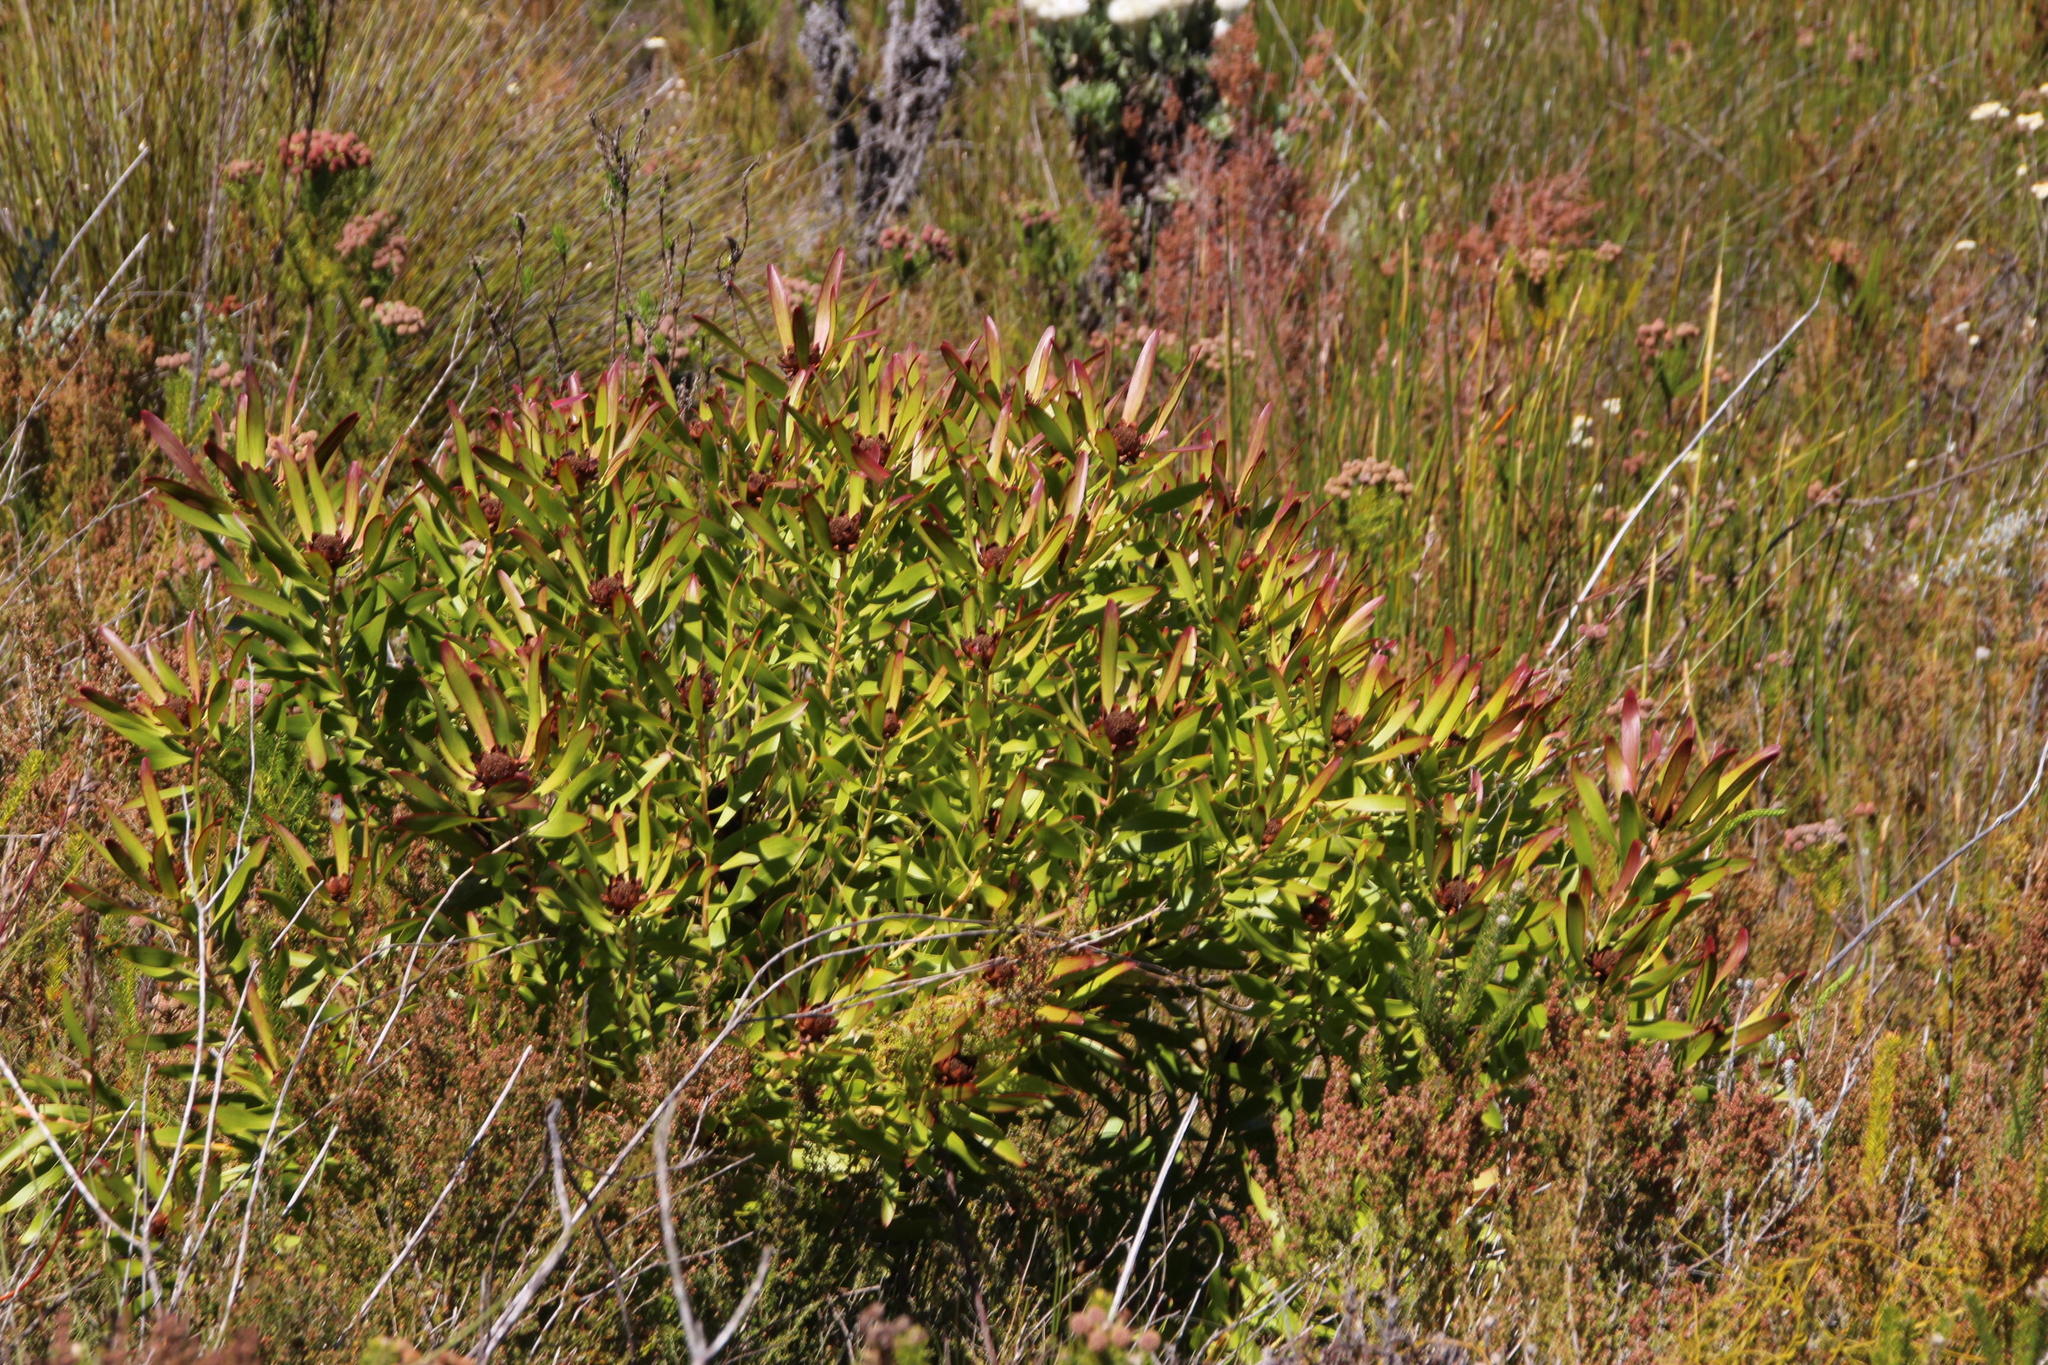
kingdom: Plantae
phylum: Tracheophyta
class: Magnoliopsida
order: Proteales
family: Proteaceae
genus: Leucadendron
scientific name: Leucadendron microcephalum
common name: Oilbract conebush
